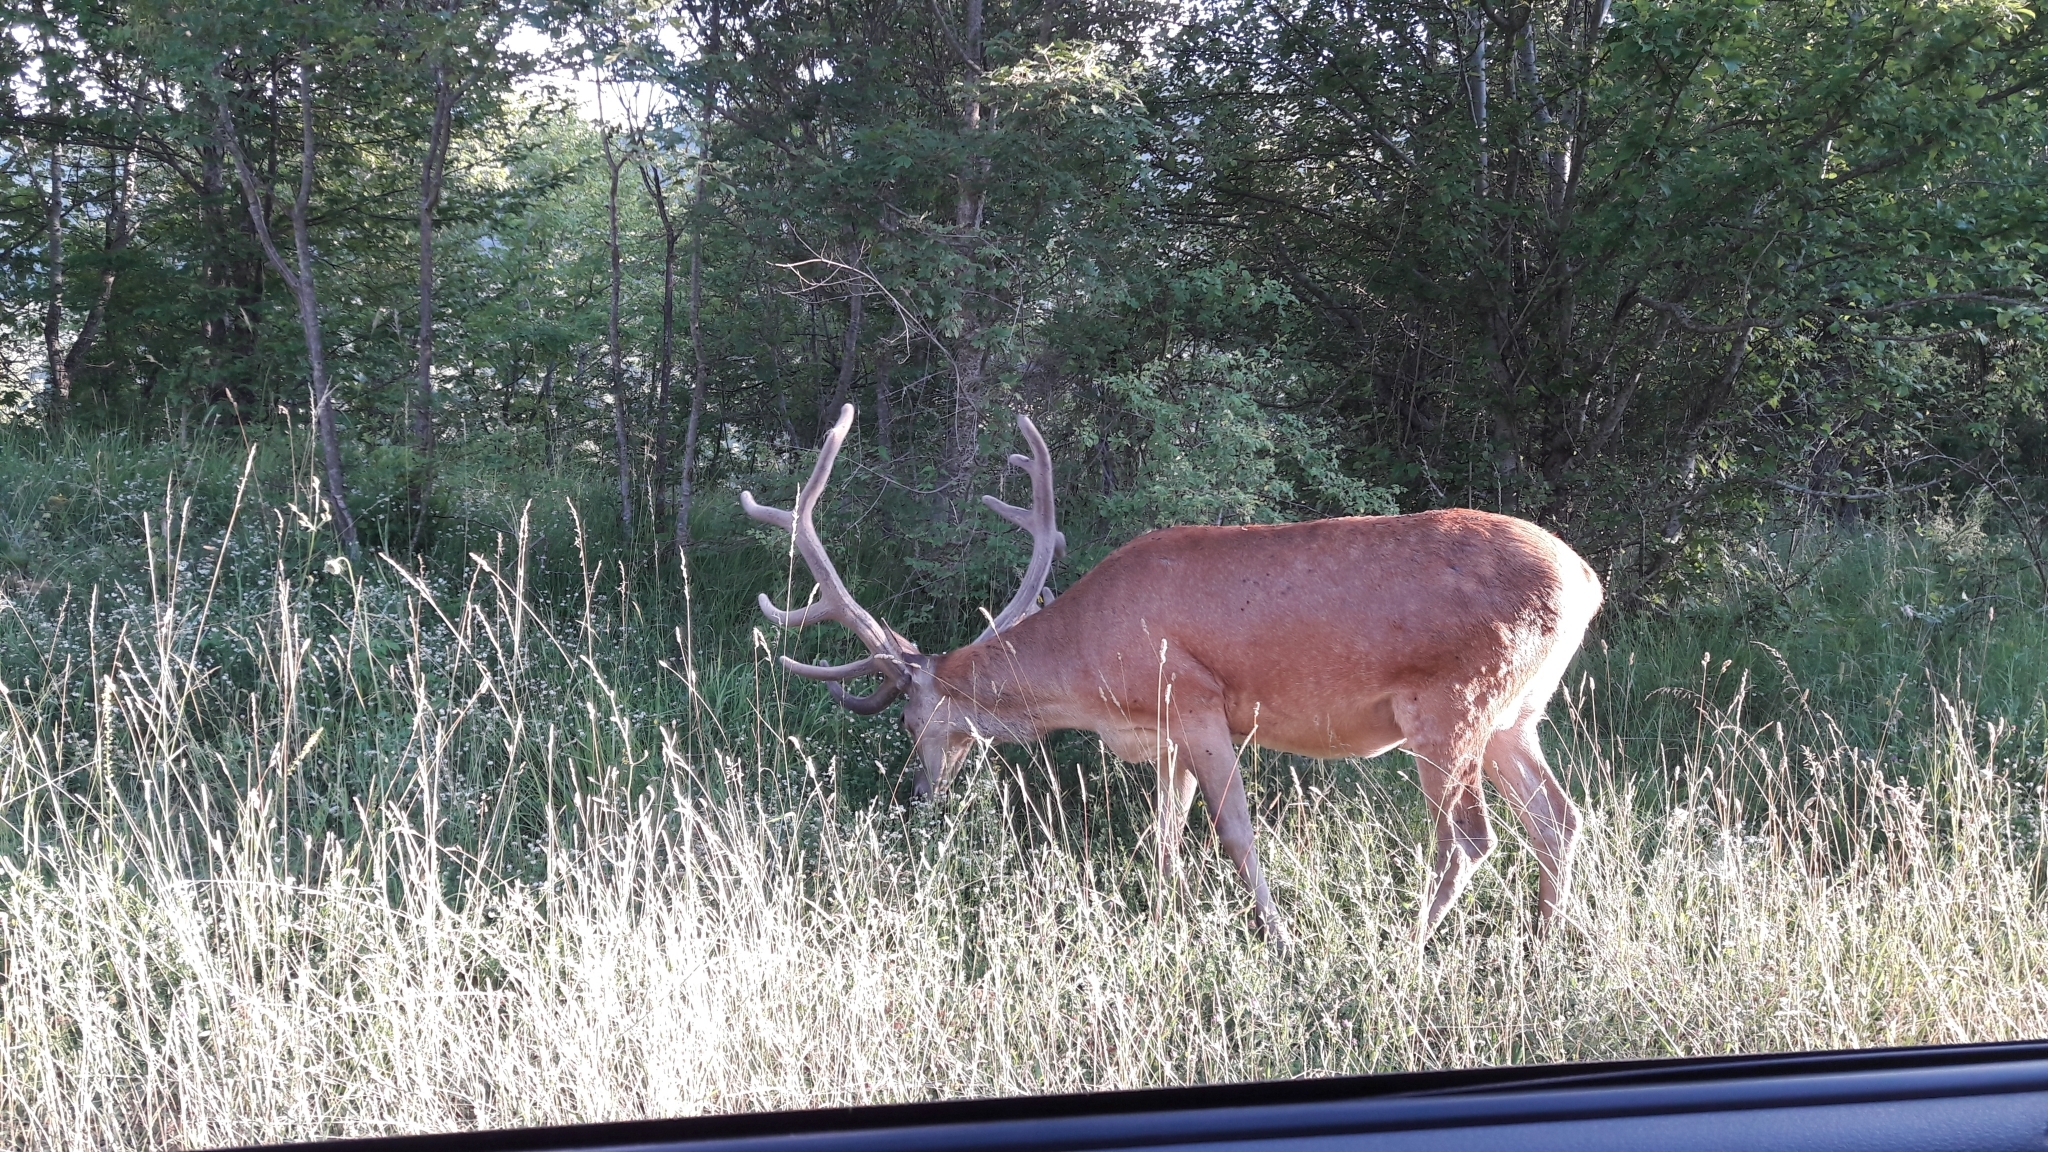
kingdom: Animalia
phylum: Chordata
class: Mammalia
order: Artiodactyla
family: Cervidae
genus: Cervus
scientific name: Cervus elaphus
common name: Red deer
